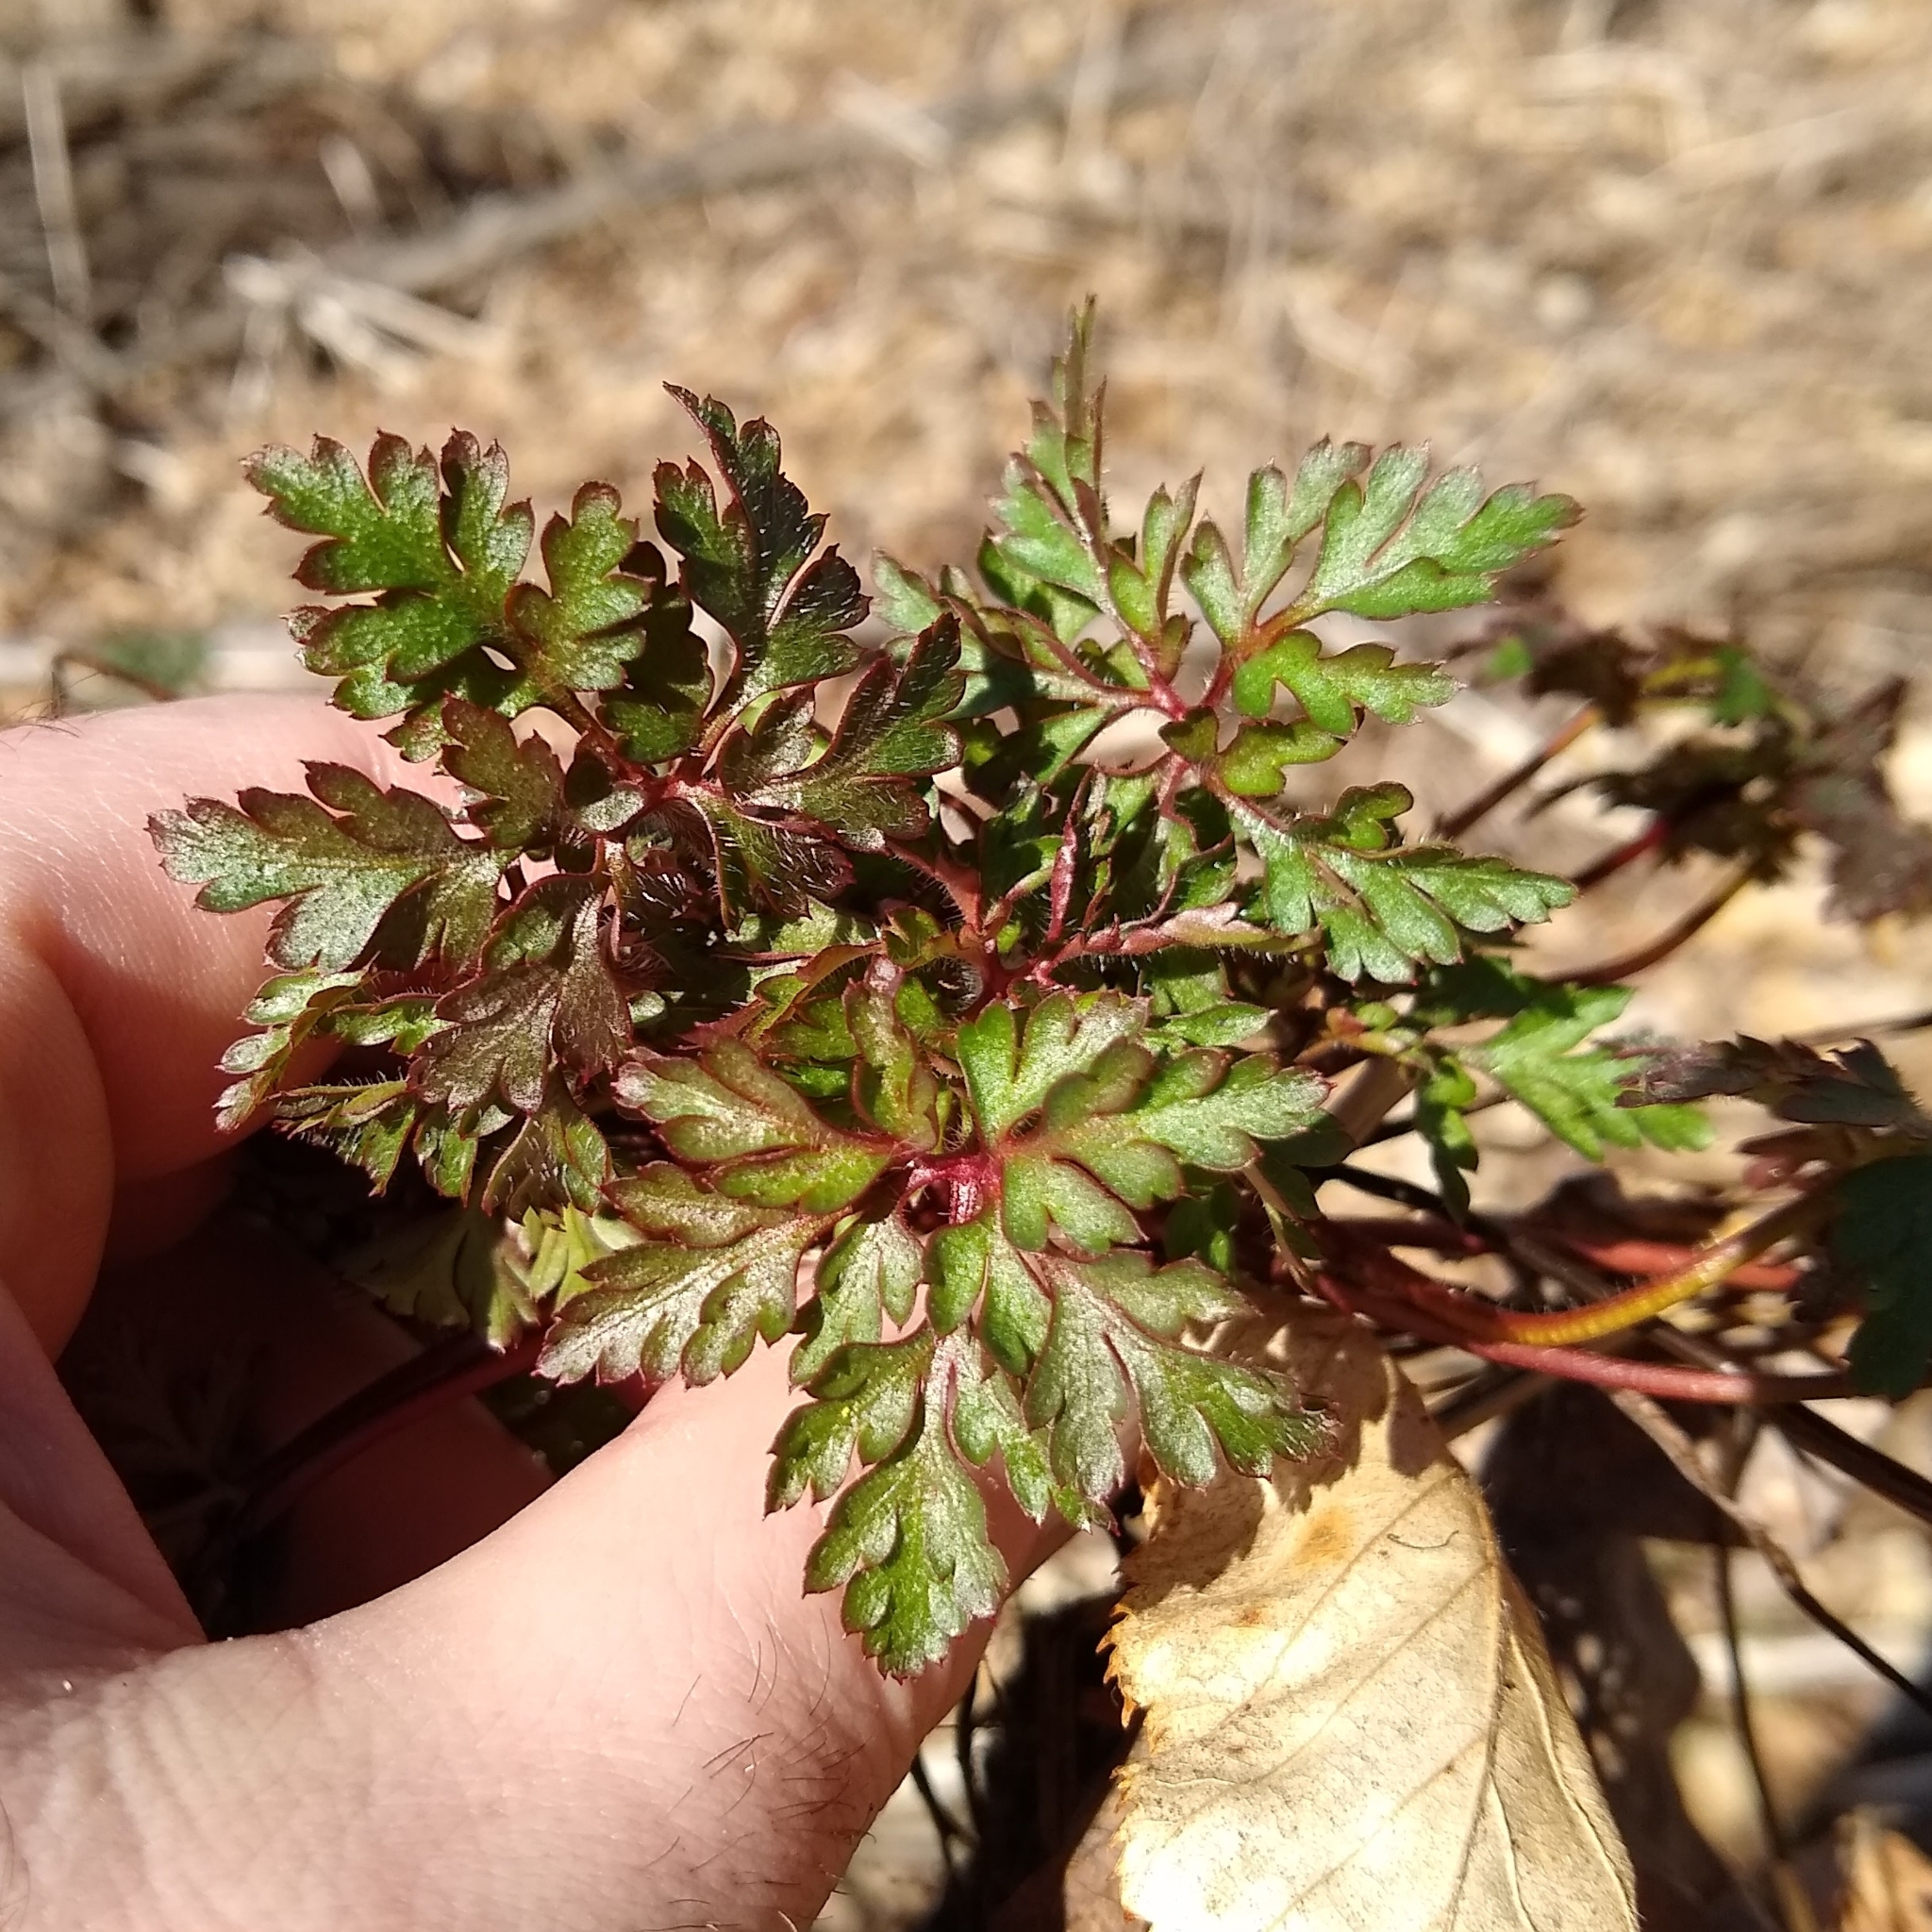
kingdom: Plantae
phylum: Tracheophyta
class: Magnoliopsida
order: Geraniales
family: Geraniaceae
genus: Geranium
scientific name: Geranium robertianum
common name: Herb-robert
